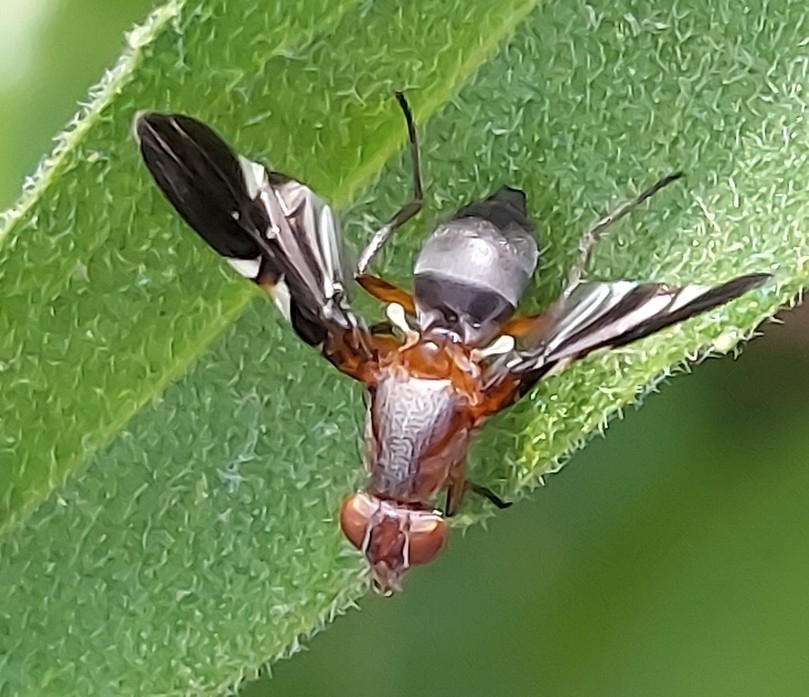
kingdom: Animalia
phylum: Arthropoda
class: Insecta
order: Diptera
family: Ulidiidae
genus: Delphinia
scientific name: Delphinia picta
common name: Common picture-winged fly
